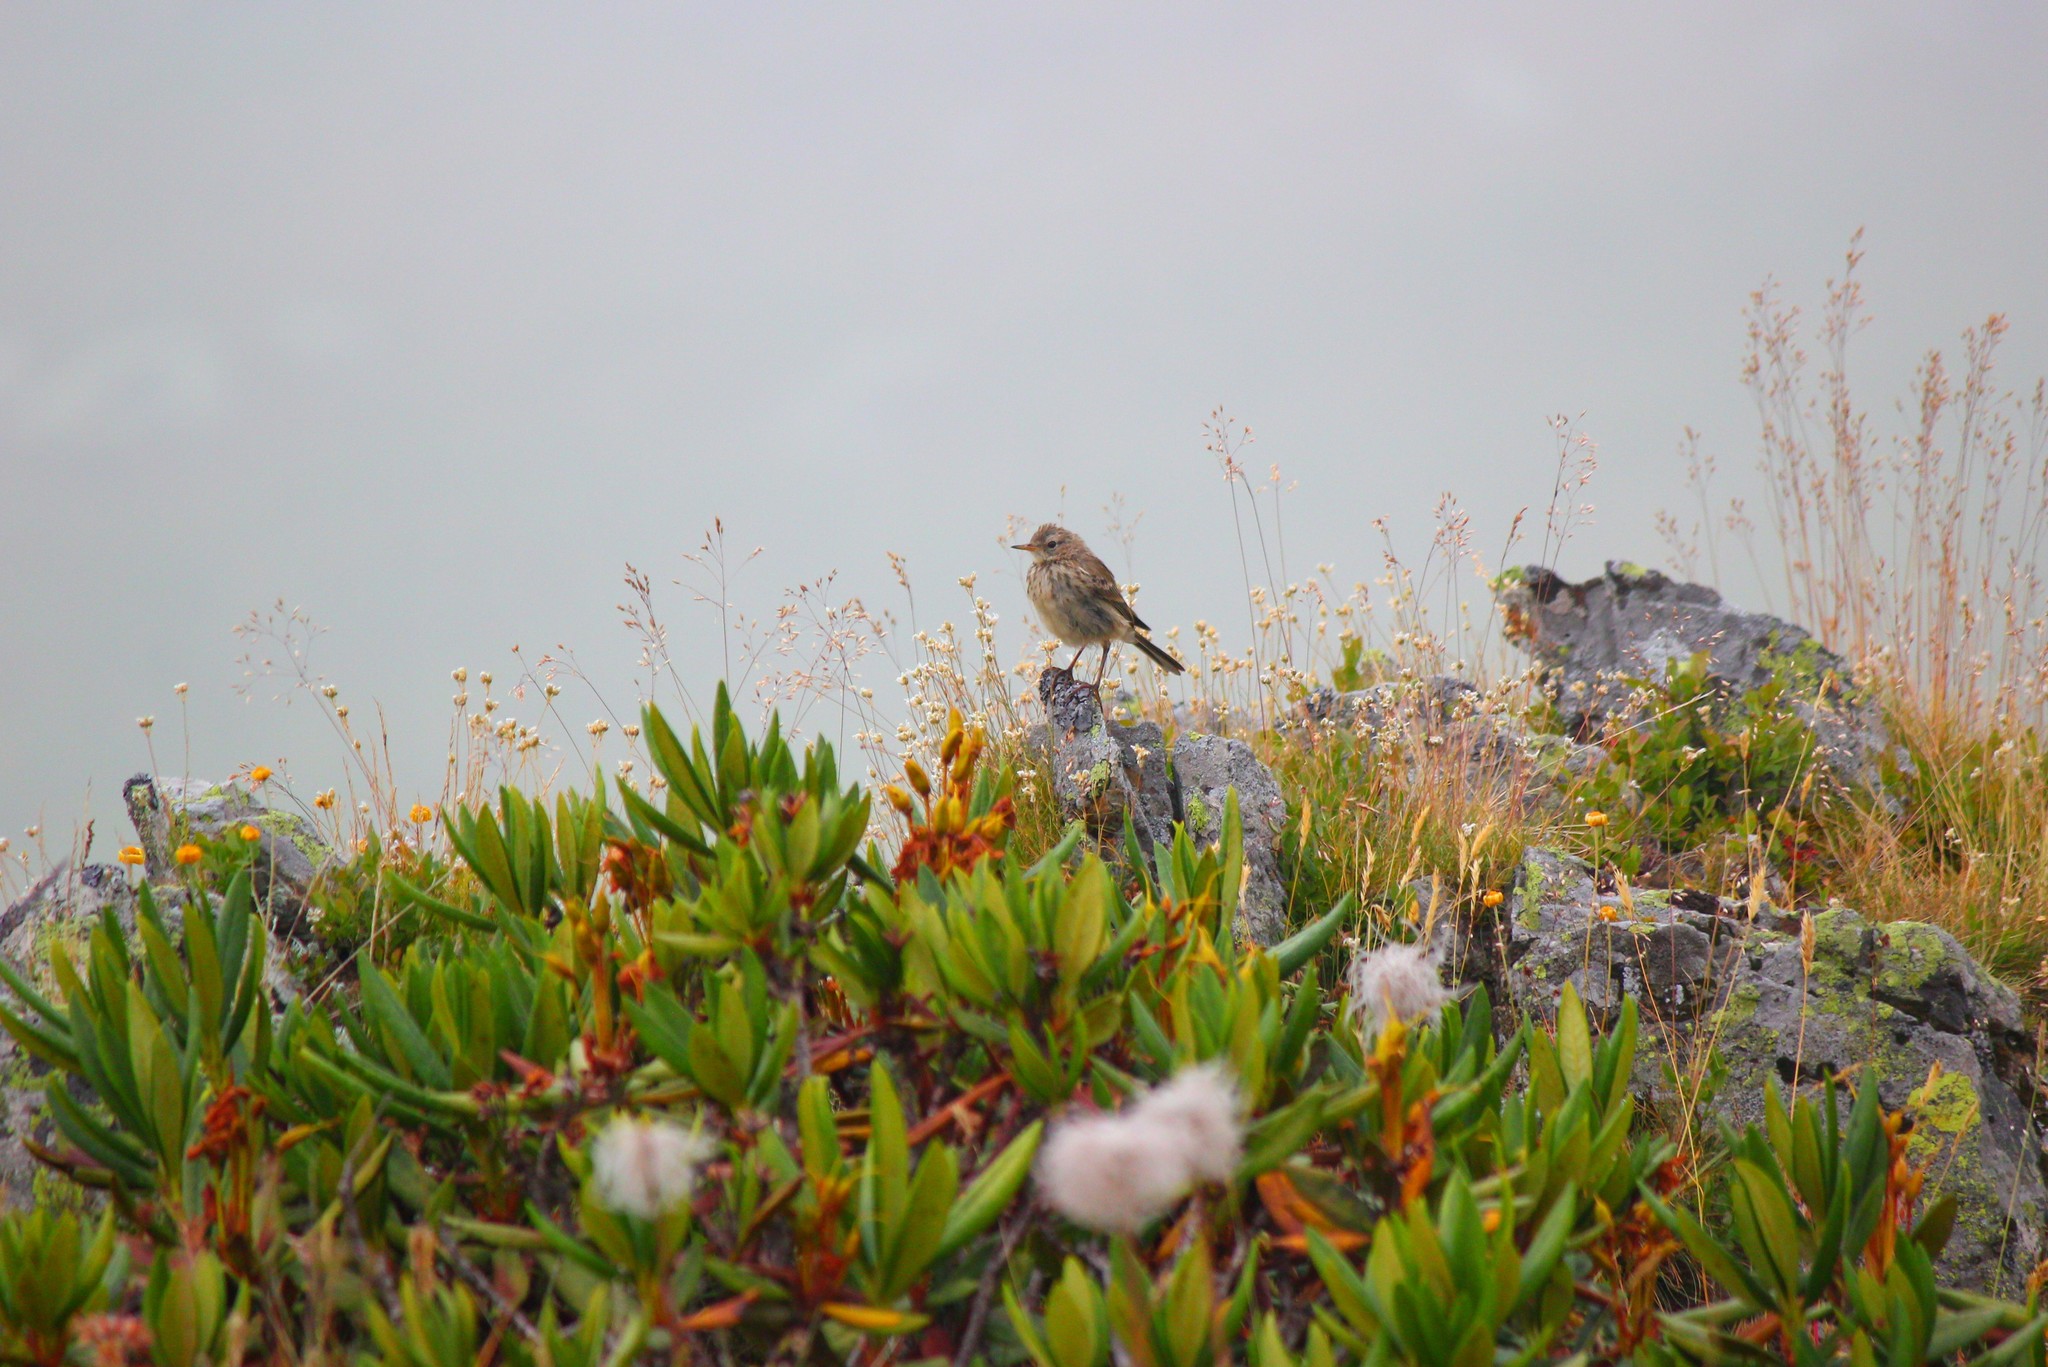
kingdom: Animalia
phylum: Chordata
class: Aves
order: Passeriformes
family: Motacillidae
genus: Anthus
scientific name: Anthus spinoletta
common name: Water pipit
